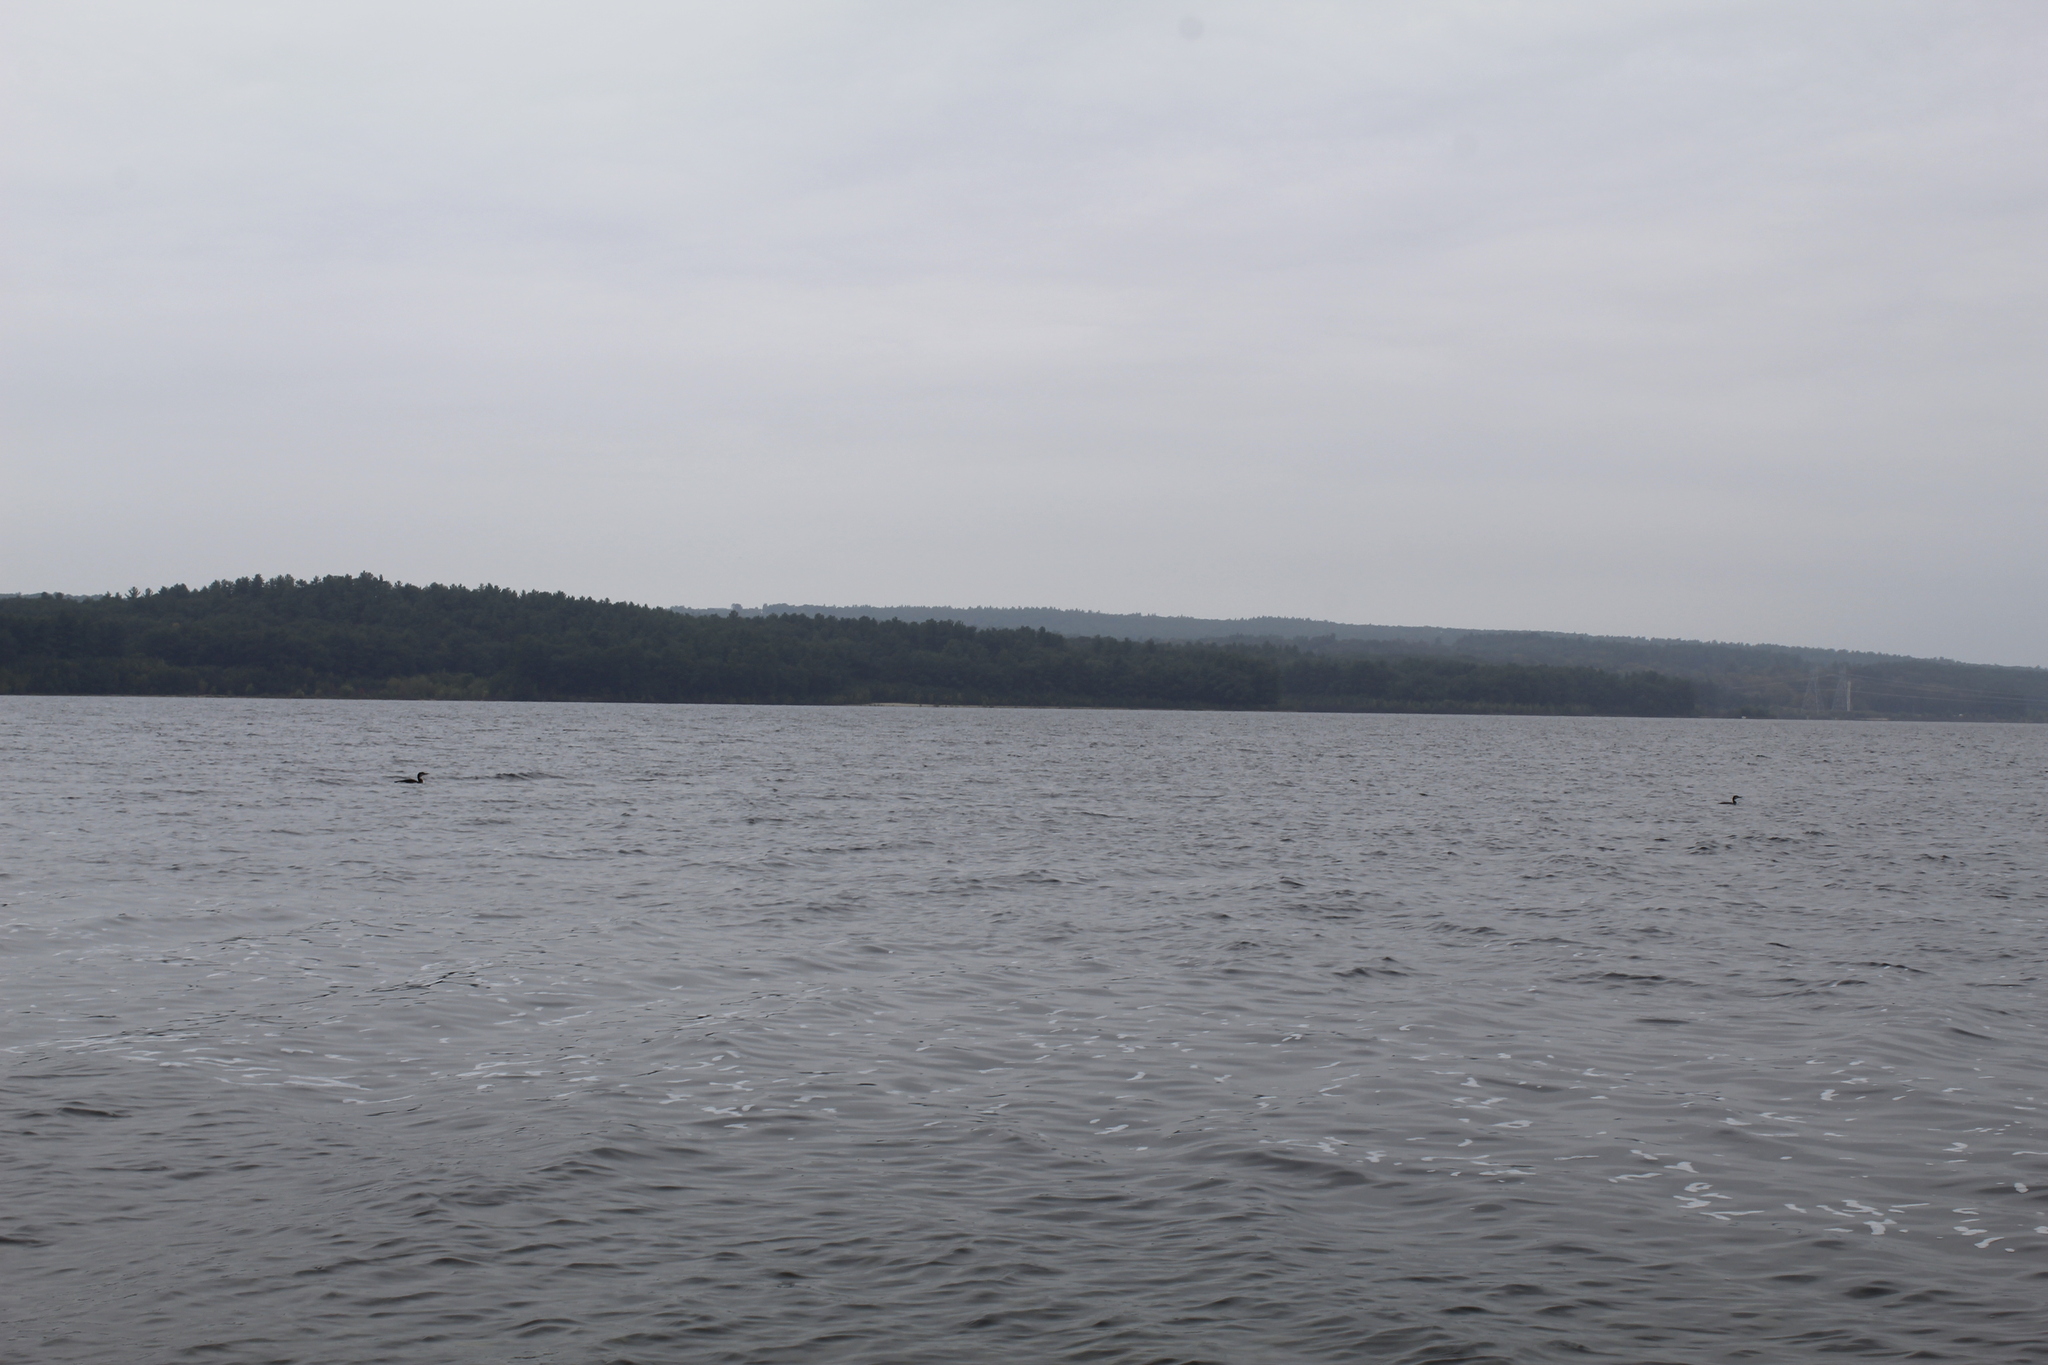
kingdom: Animalia
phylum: Chordata
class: Aves
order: Gaviiformes
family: Gaviidae
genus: Gavia
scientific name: Gavia immer
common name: Common loon
